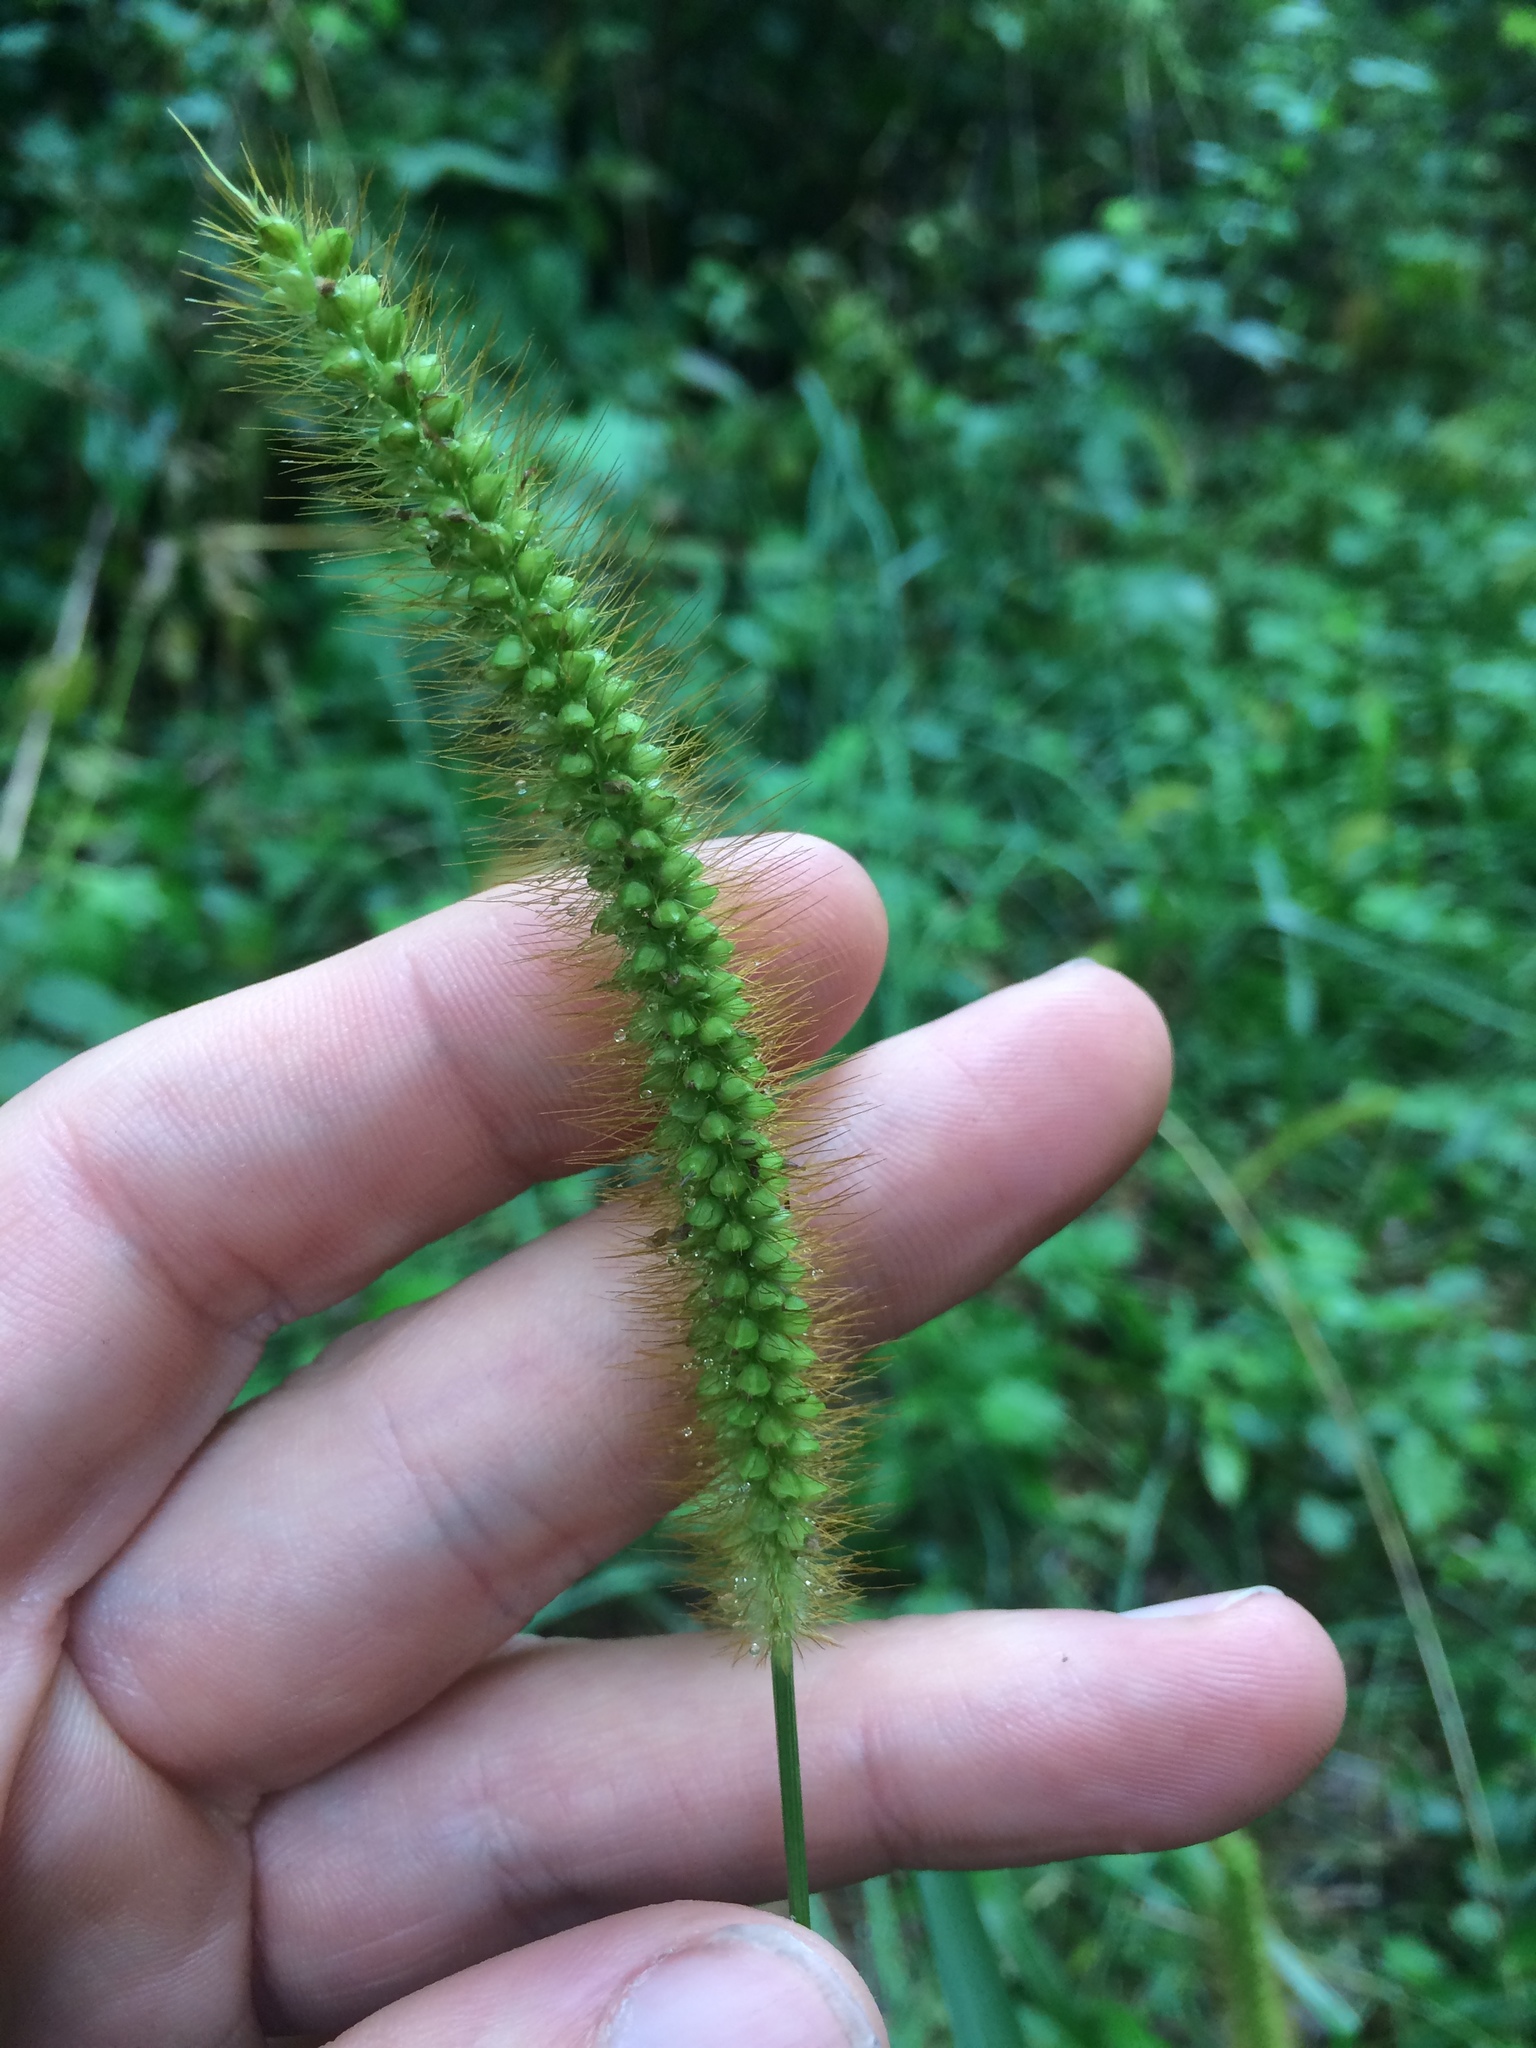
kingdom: Plantae
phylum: Tracheophyta
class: Liliopsida
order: Poales
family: Poaceae
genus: Setaria
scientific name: Setaria pumila
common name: Yellow bristle-grass
